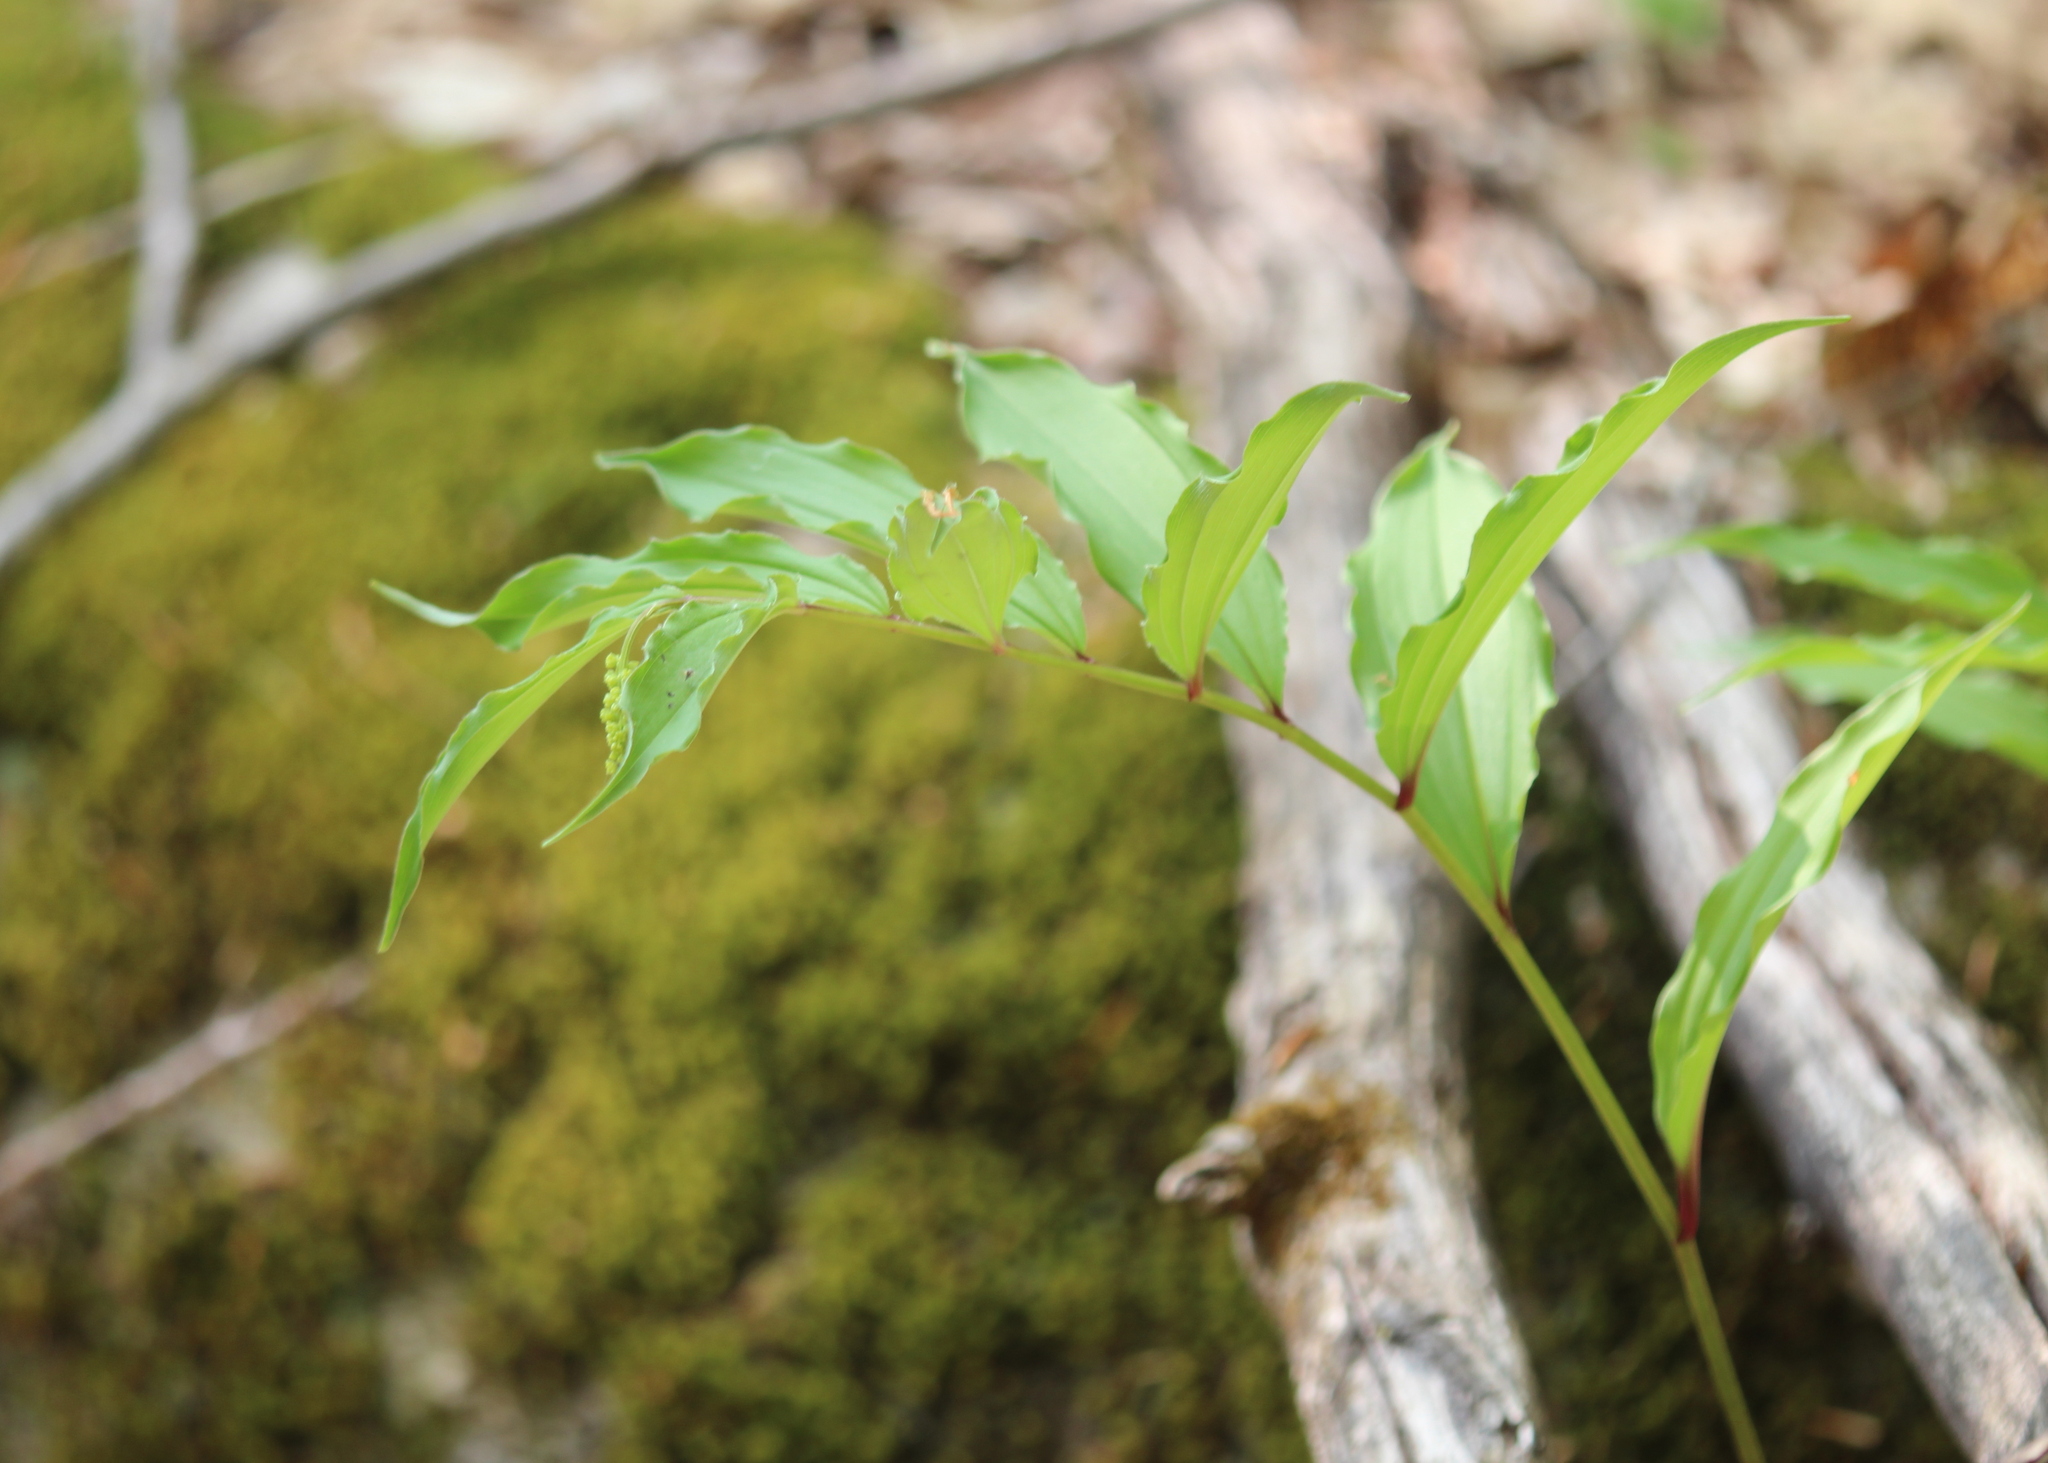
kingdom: Plantae
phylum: Tracheophyta
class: Liliopsida
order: Asparagales
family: Asparagaceae
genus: Maianthemum
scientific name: Maianthemum racemosum
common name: False spikenard
